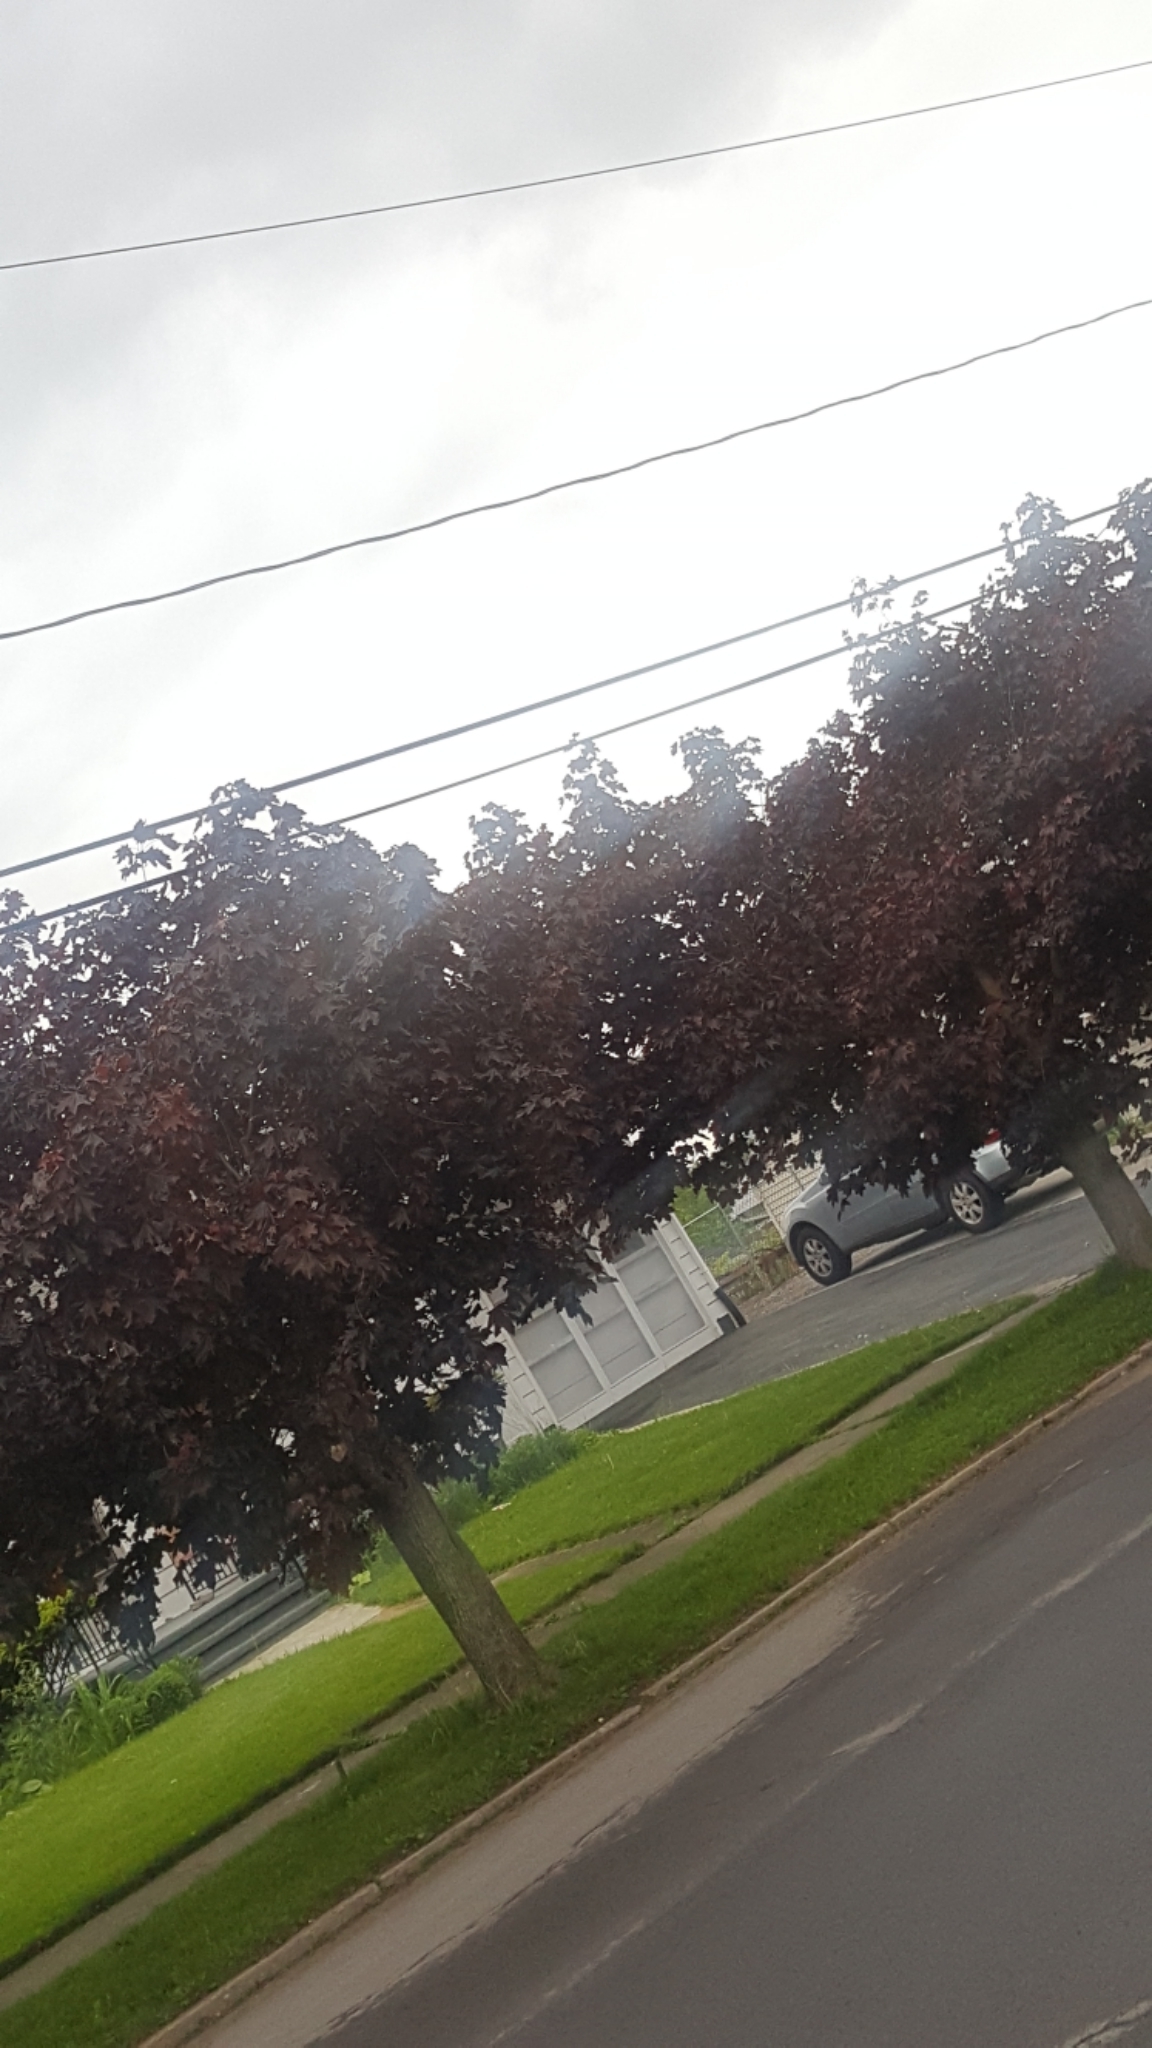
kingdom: Plantae
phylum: Tracheophyta
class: Magnoliopsida
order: Sapindales
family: Sapindaceae
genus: Acer
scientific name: Acer platanoides
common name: Norway maple
